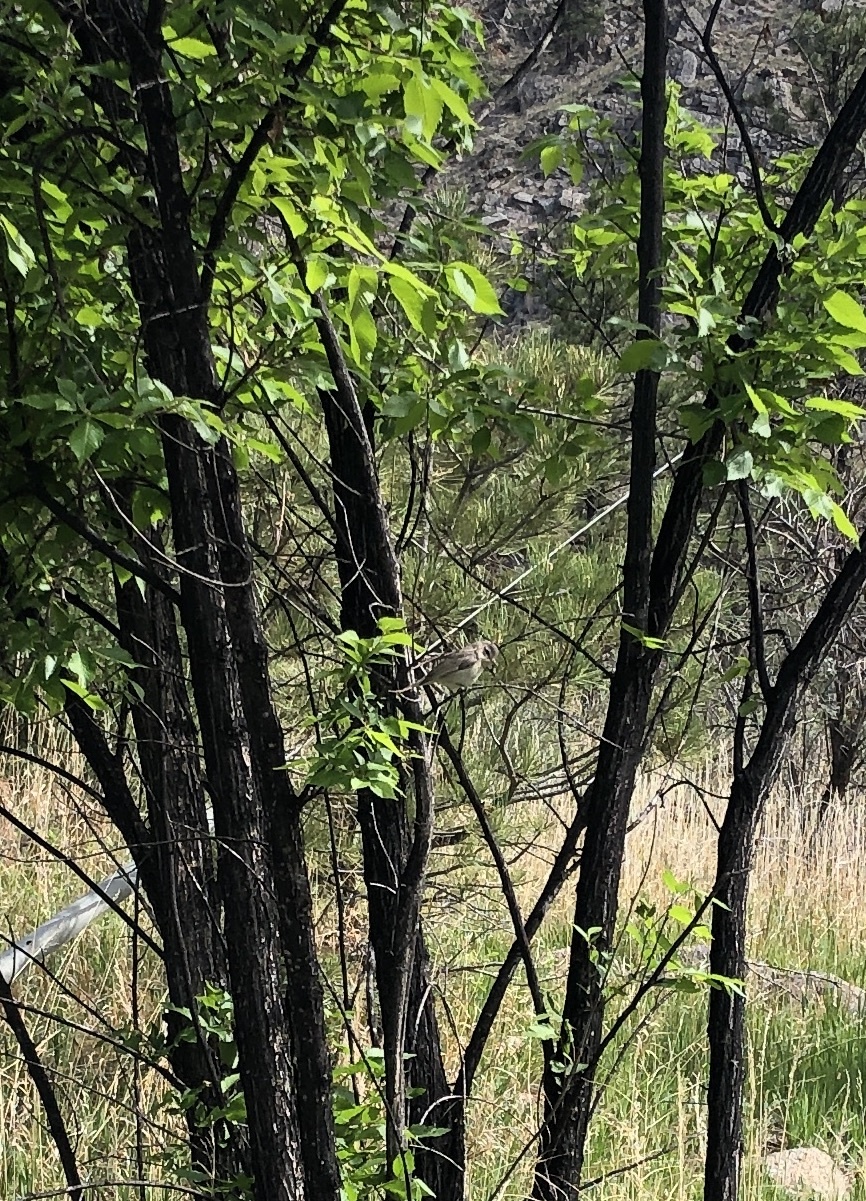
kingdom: Animalia
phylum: Chordata
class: Aves
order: Passeriformes
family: Vireonidae
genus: Vireo
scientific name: Vireo gilvus
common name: Warbling vireo
